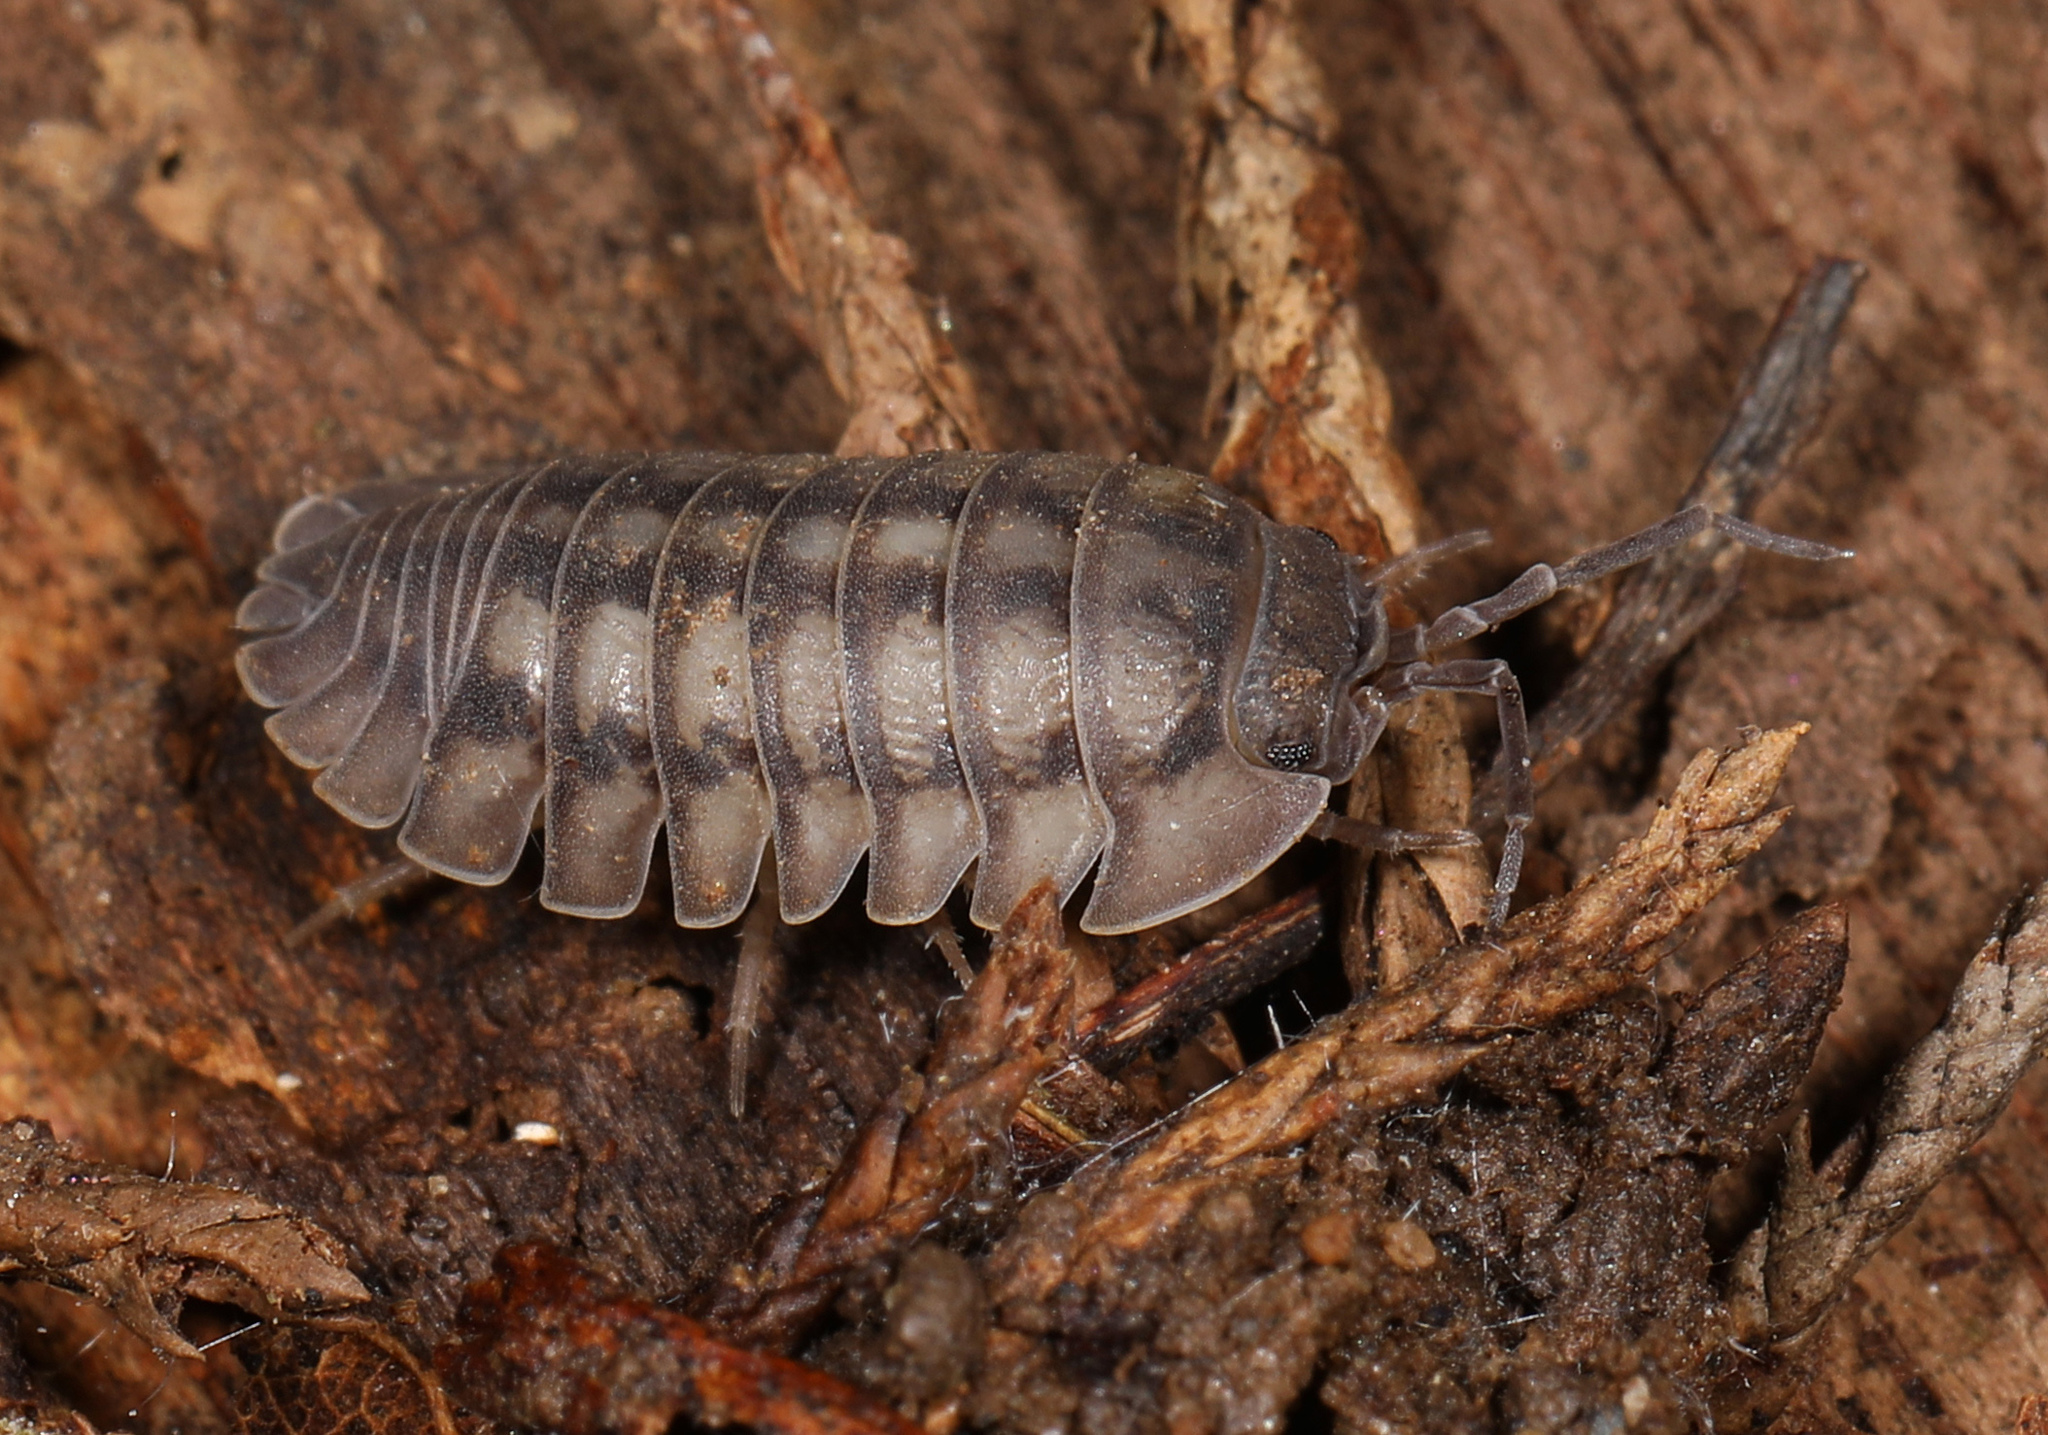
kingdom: Animalia
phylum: Arthropoda
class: Malacostraca
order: Isopoda
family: Armadillidiidae
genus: Armadillidium
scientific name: Armadillidium nasatum
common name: Isopod
